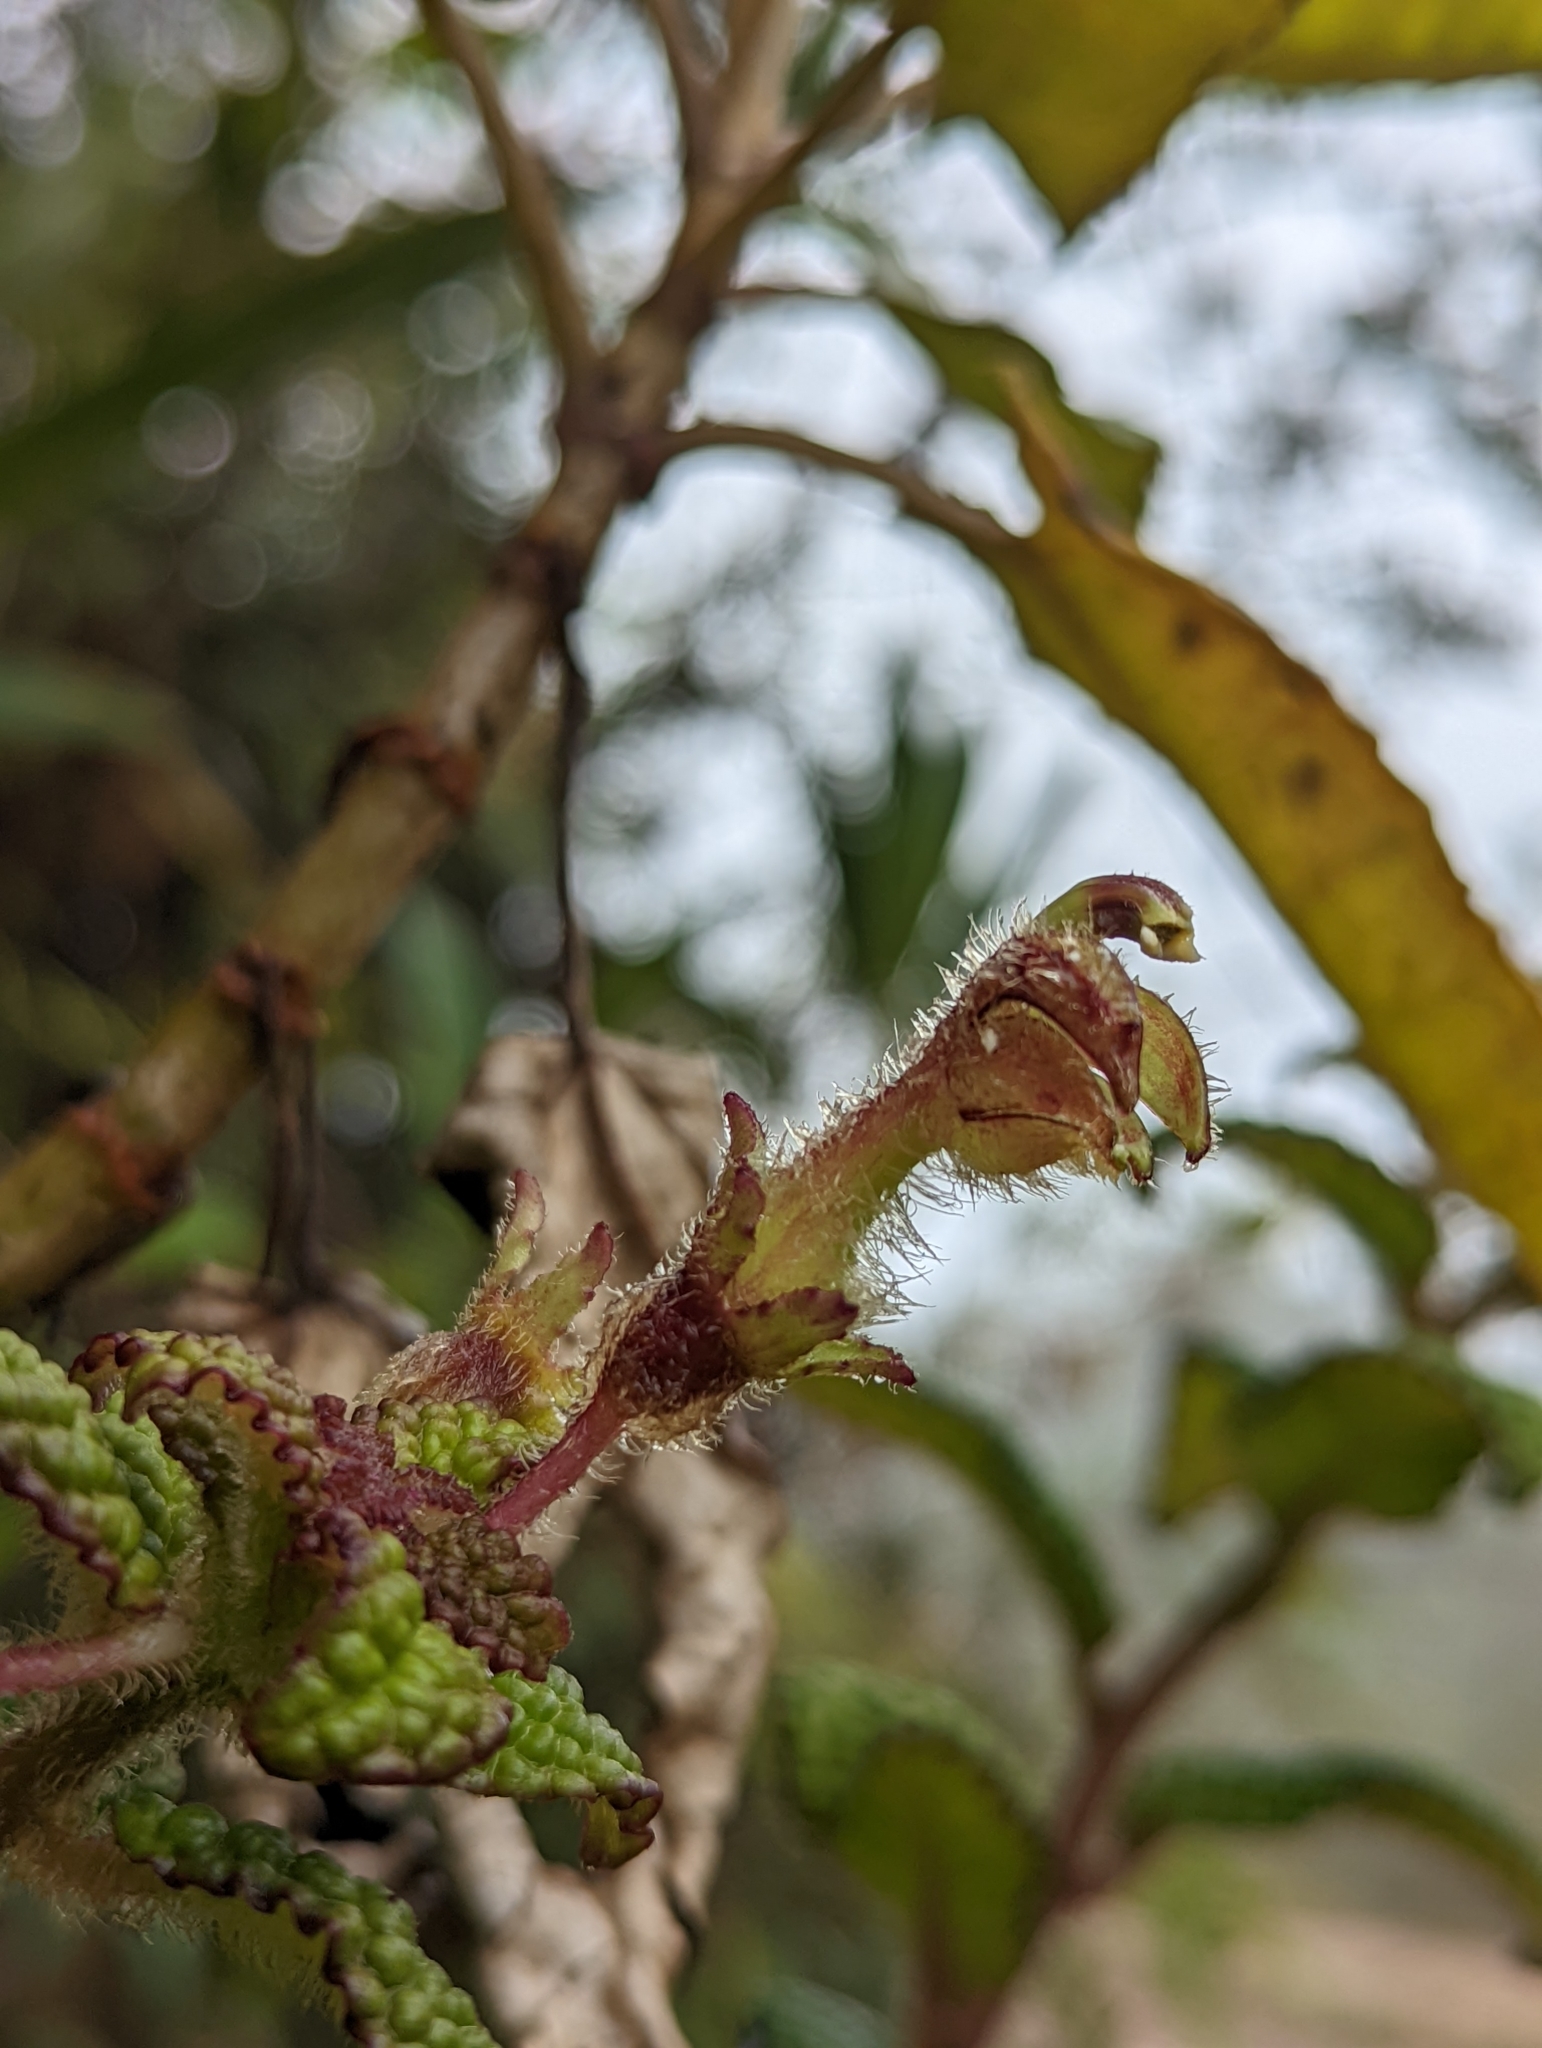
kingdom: Plantae
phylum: Tracheophyta
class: Magnoliopsida
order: Asterales
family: Campanulaceae
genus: Burmeistera
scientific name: Burmeistera bullatifolia
